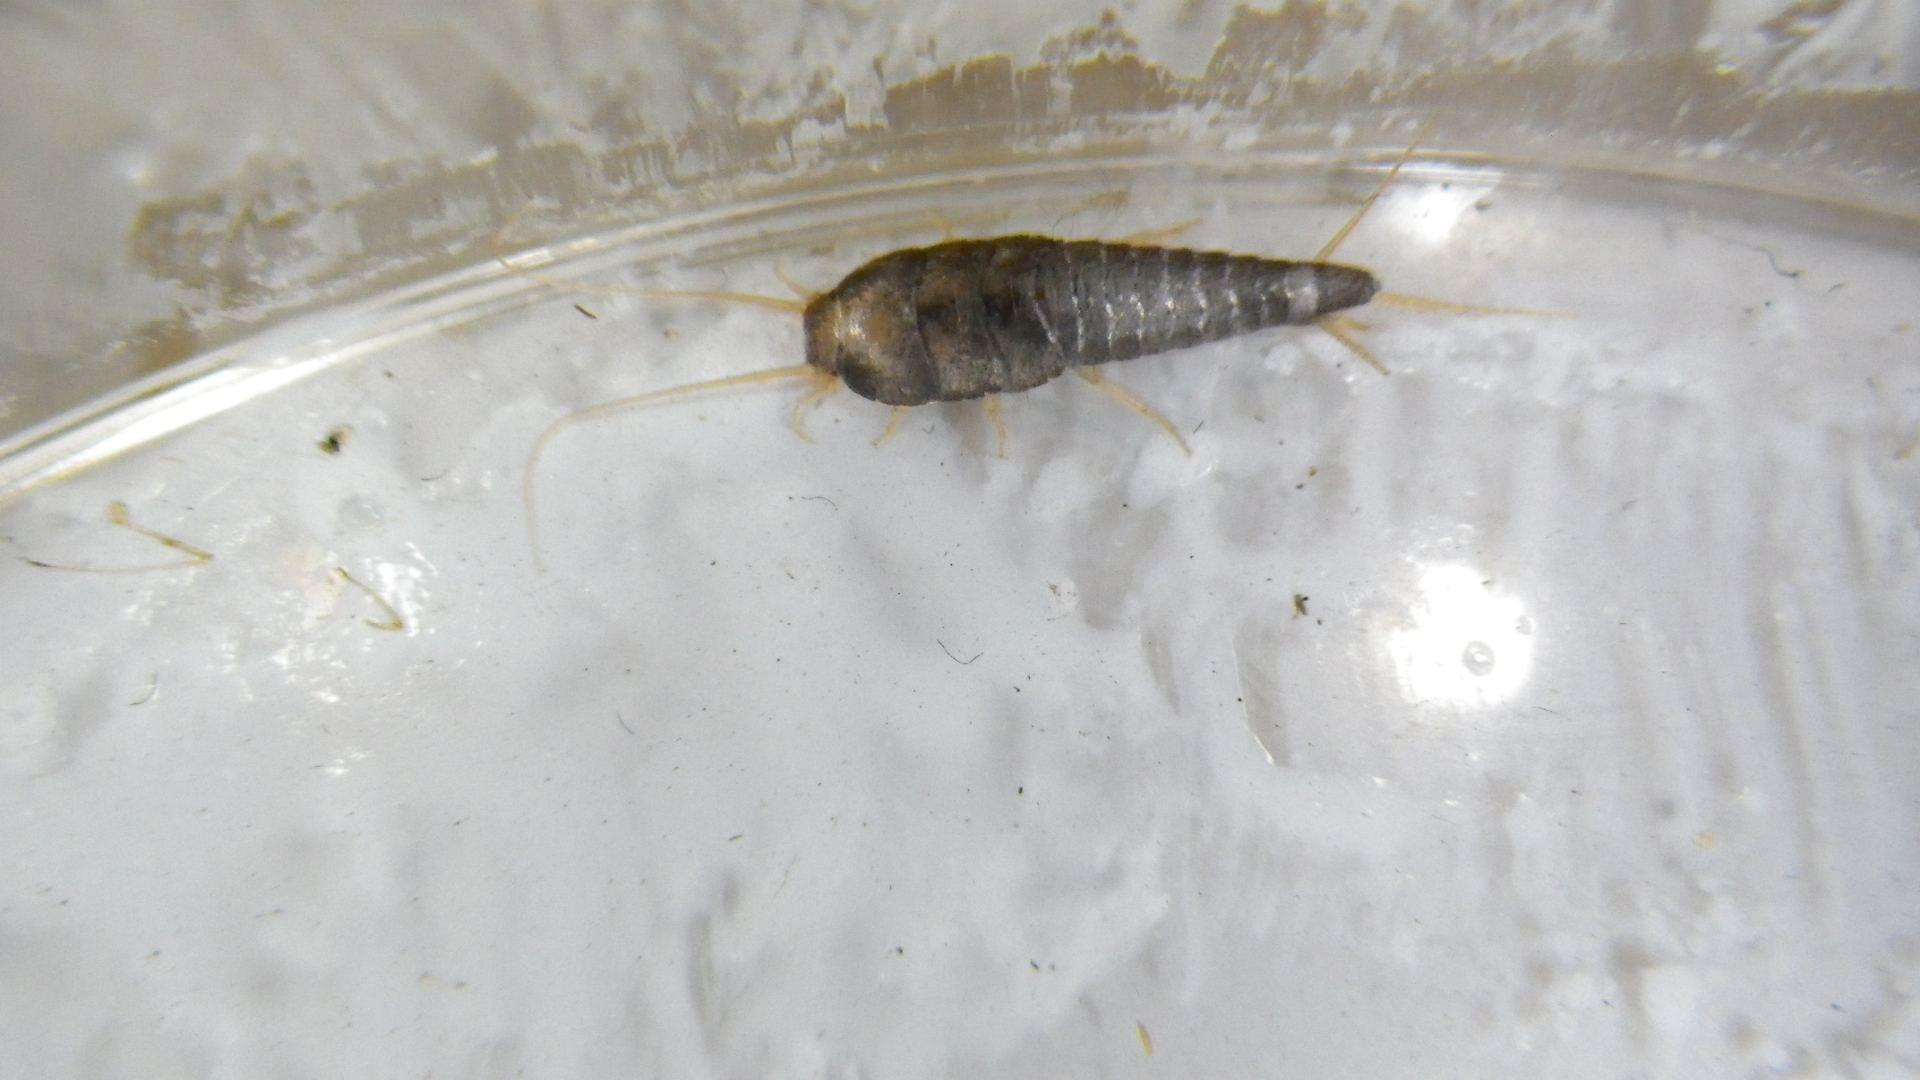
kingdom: Animalia
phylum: Arthropoda
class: Insecta
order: Zygentoma
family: Lepismatidae
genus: Lepisma
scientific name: Lepisma saccharinum
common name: Silverfish
